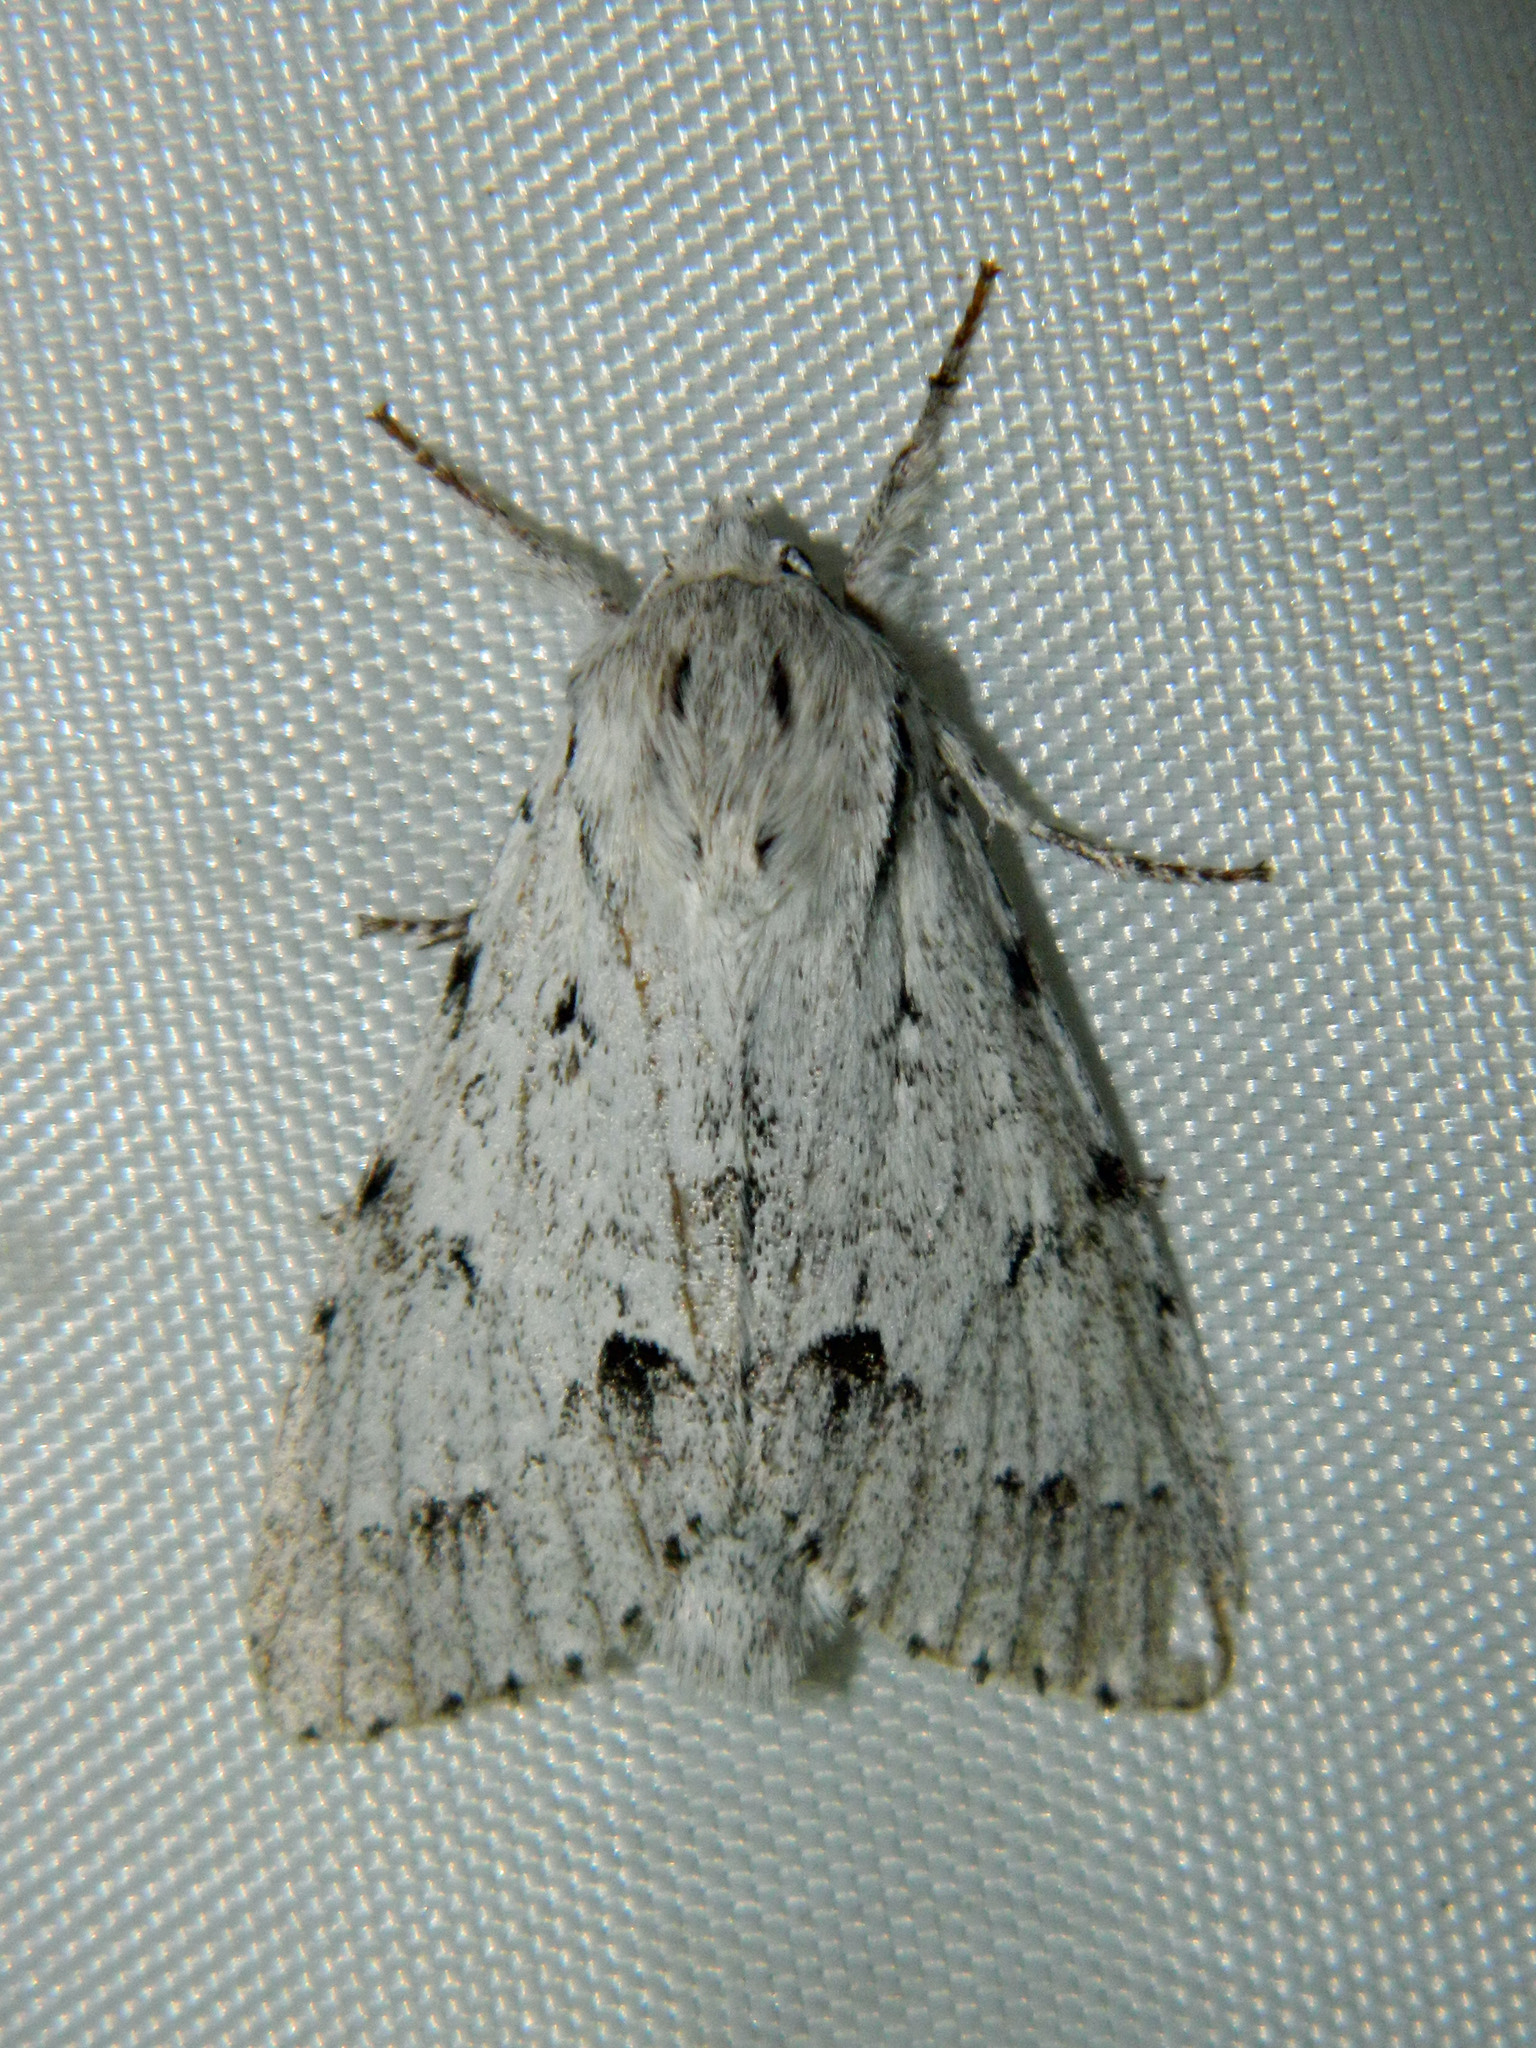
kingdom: Animalia
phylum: Arthropoda
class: Insecta
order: Lepidoptera
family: Noctuidae
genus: Acronicta
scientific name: Acronicta lepusculina
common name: Cottonwood dagger
